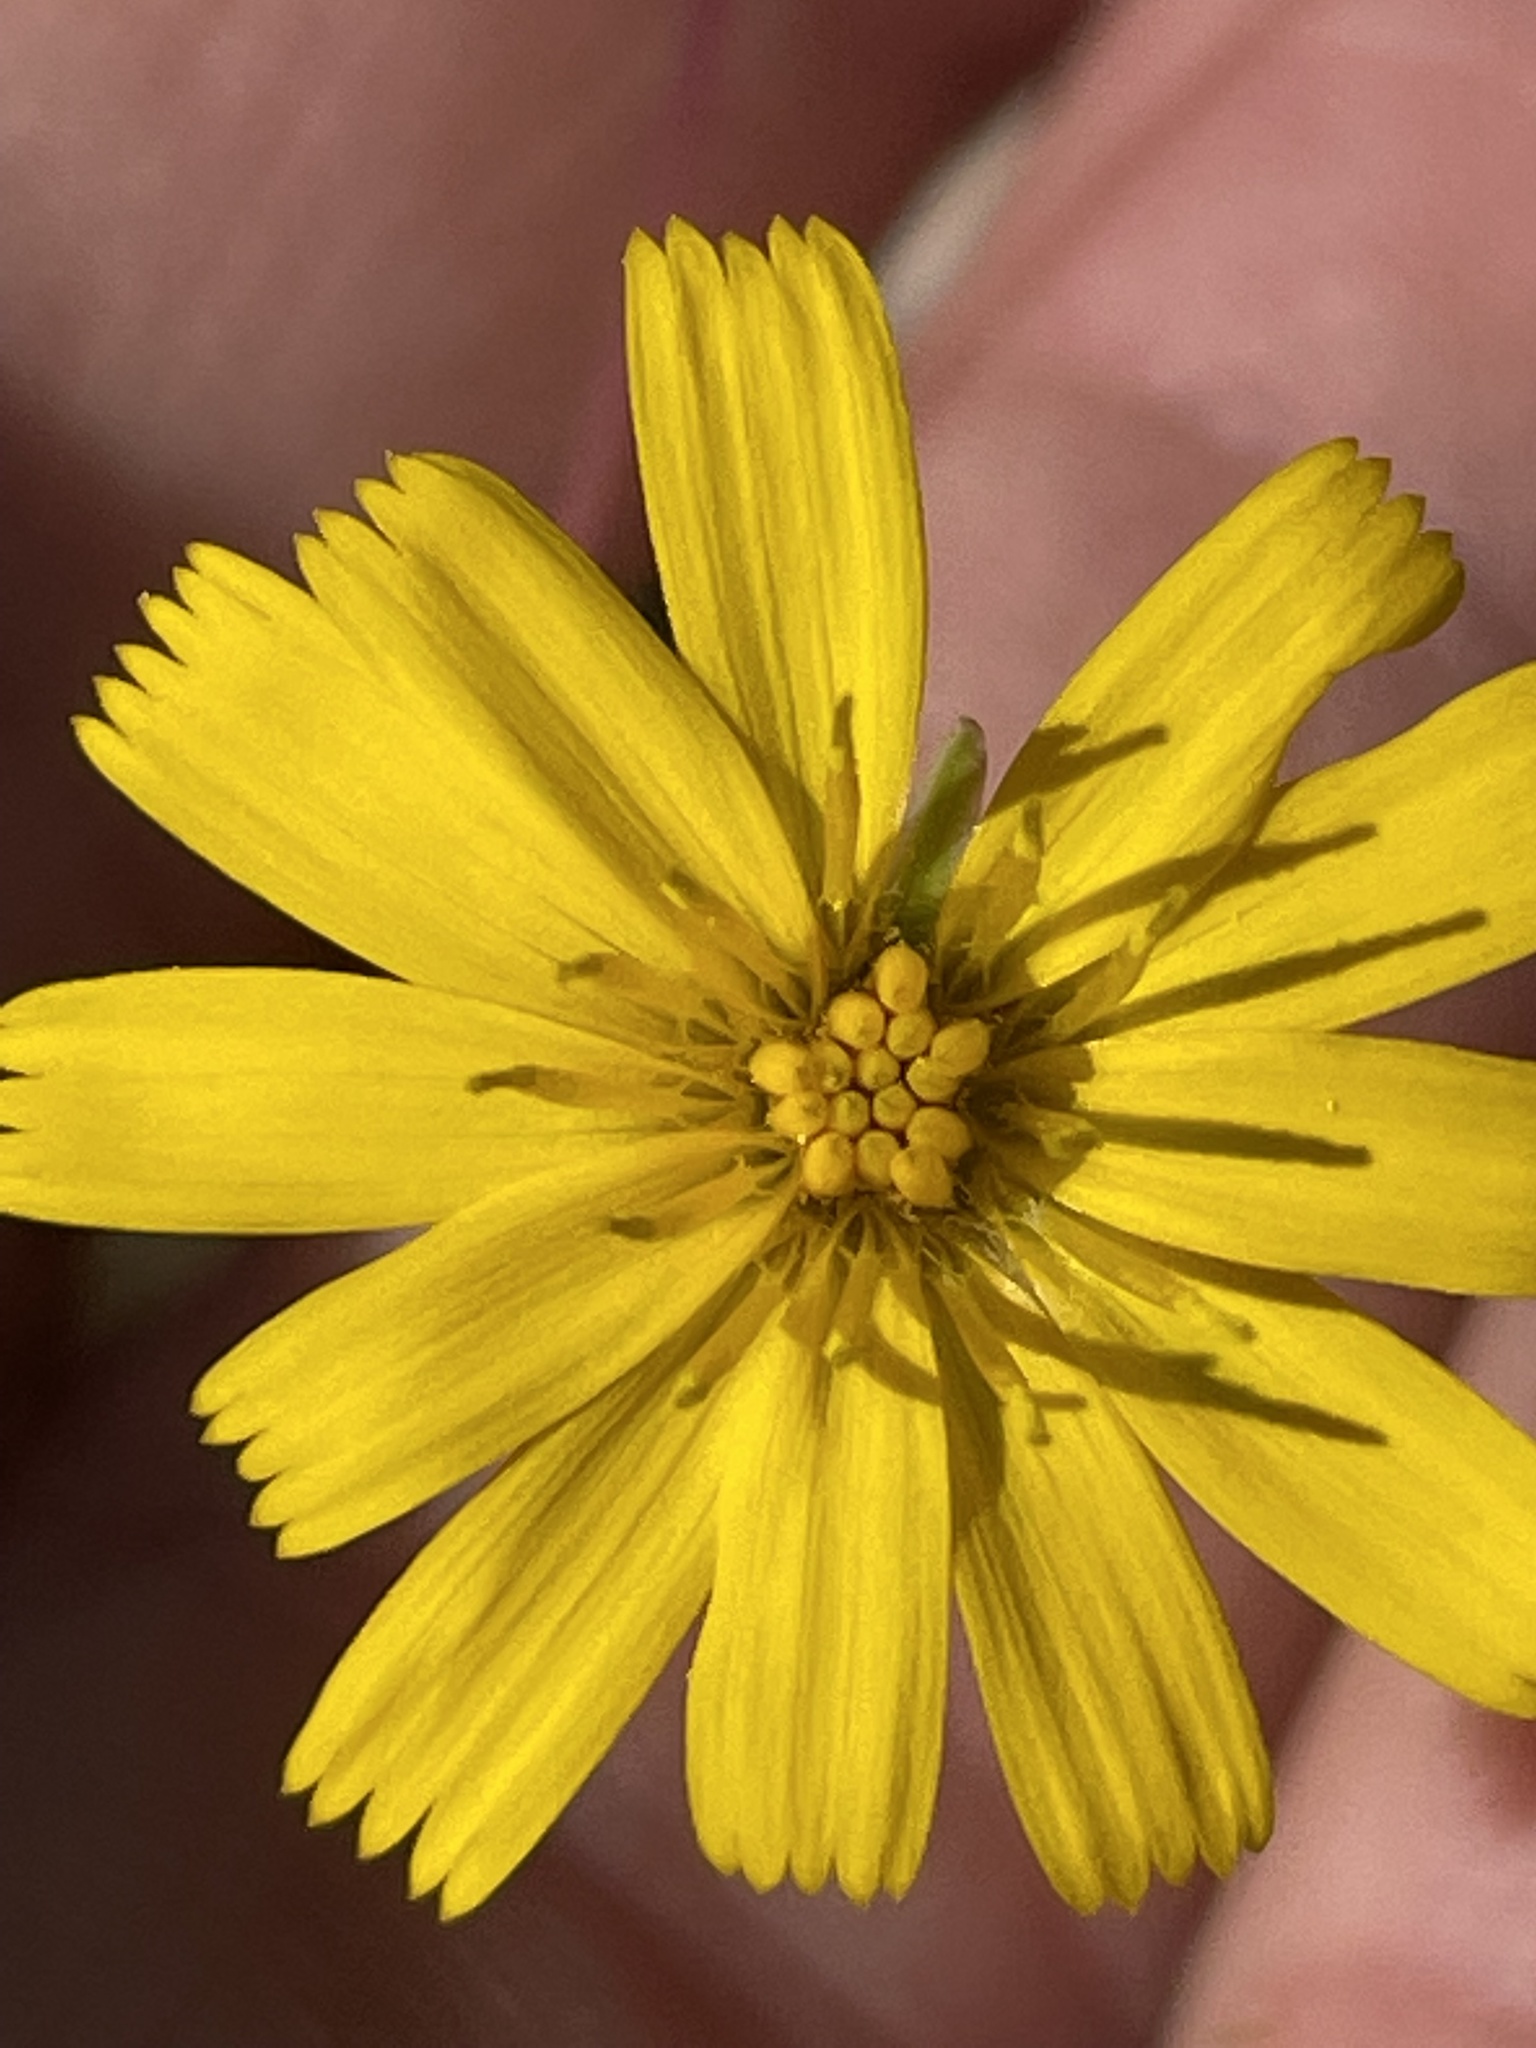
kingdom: Plantae
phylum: Tracheophyta
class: Magnoliopsida
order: Asterales
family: Asteraceae
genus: Hieracium
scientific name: Hieracium venosum
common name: Rattlesnake hawkweed
